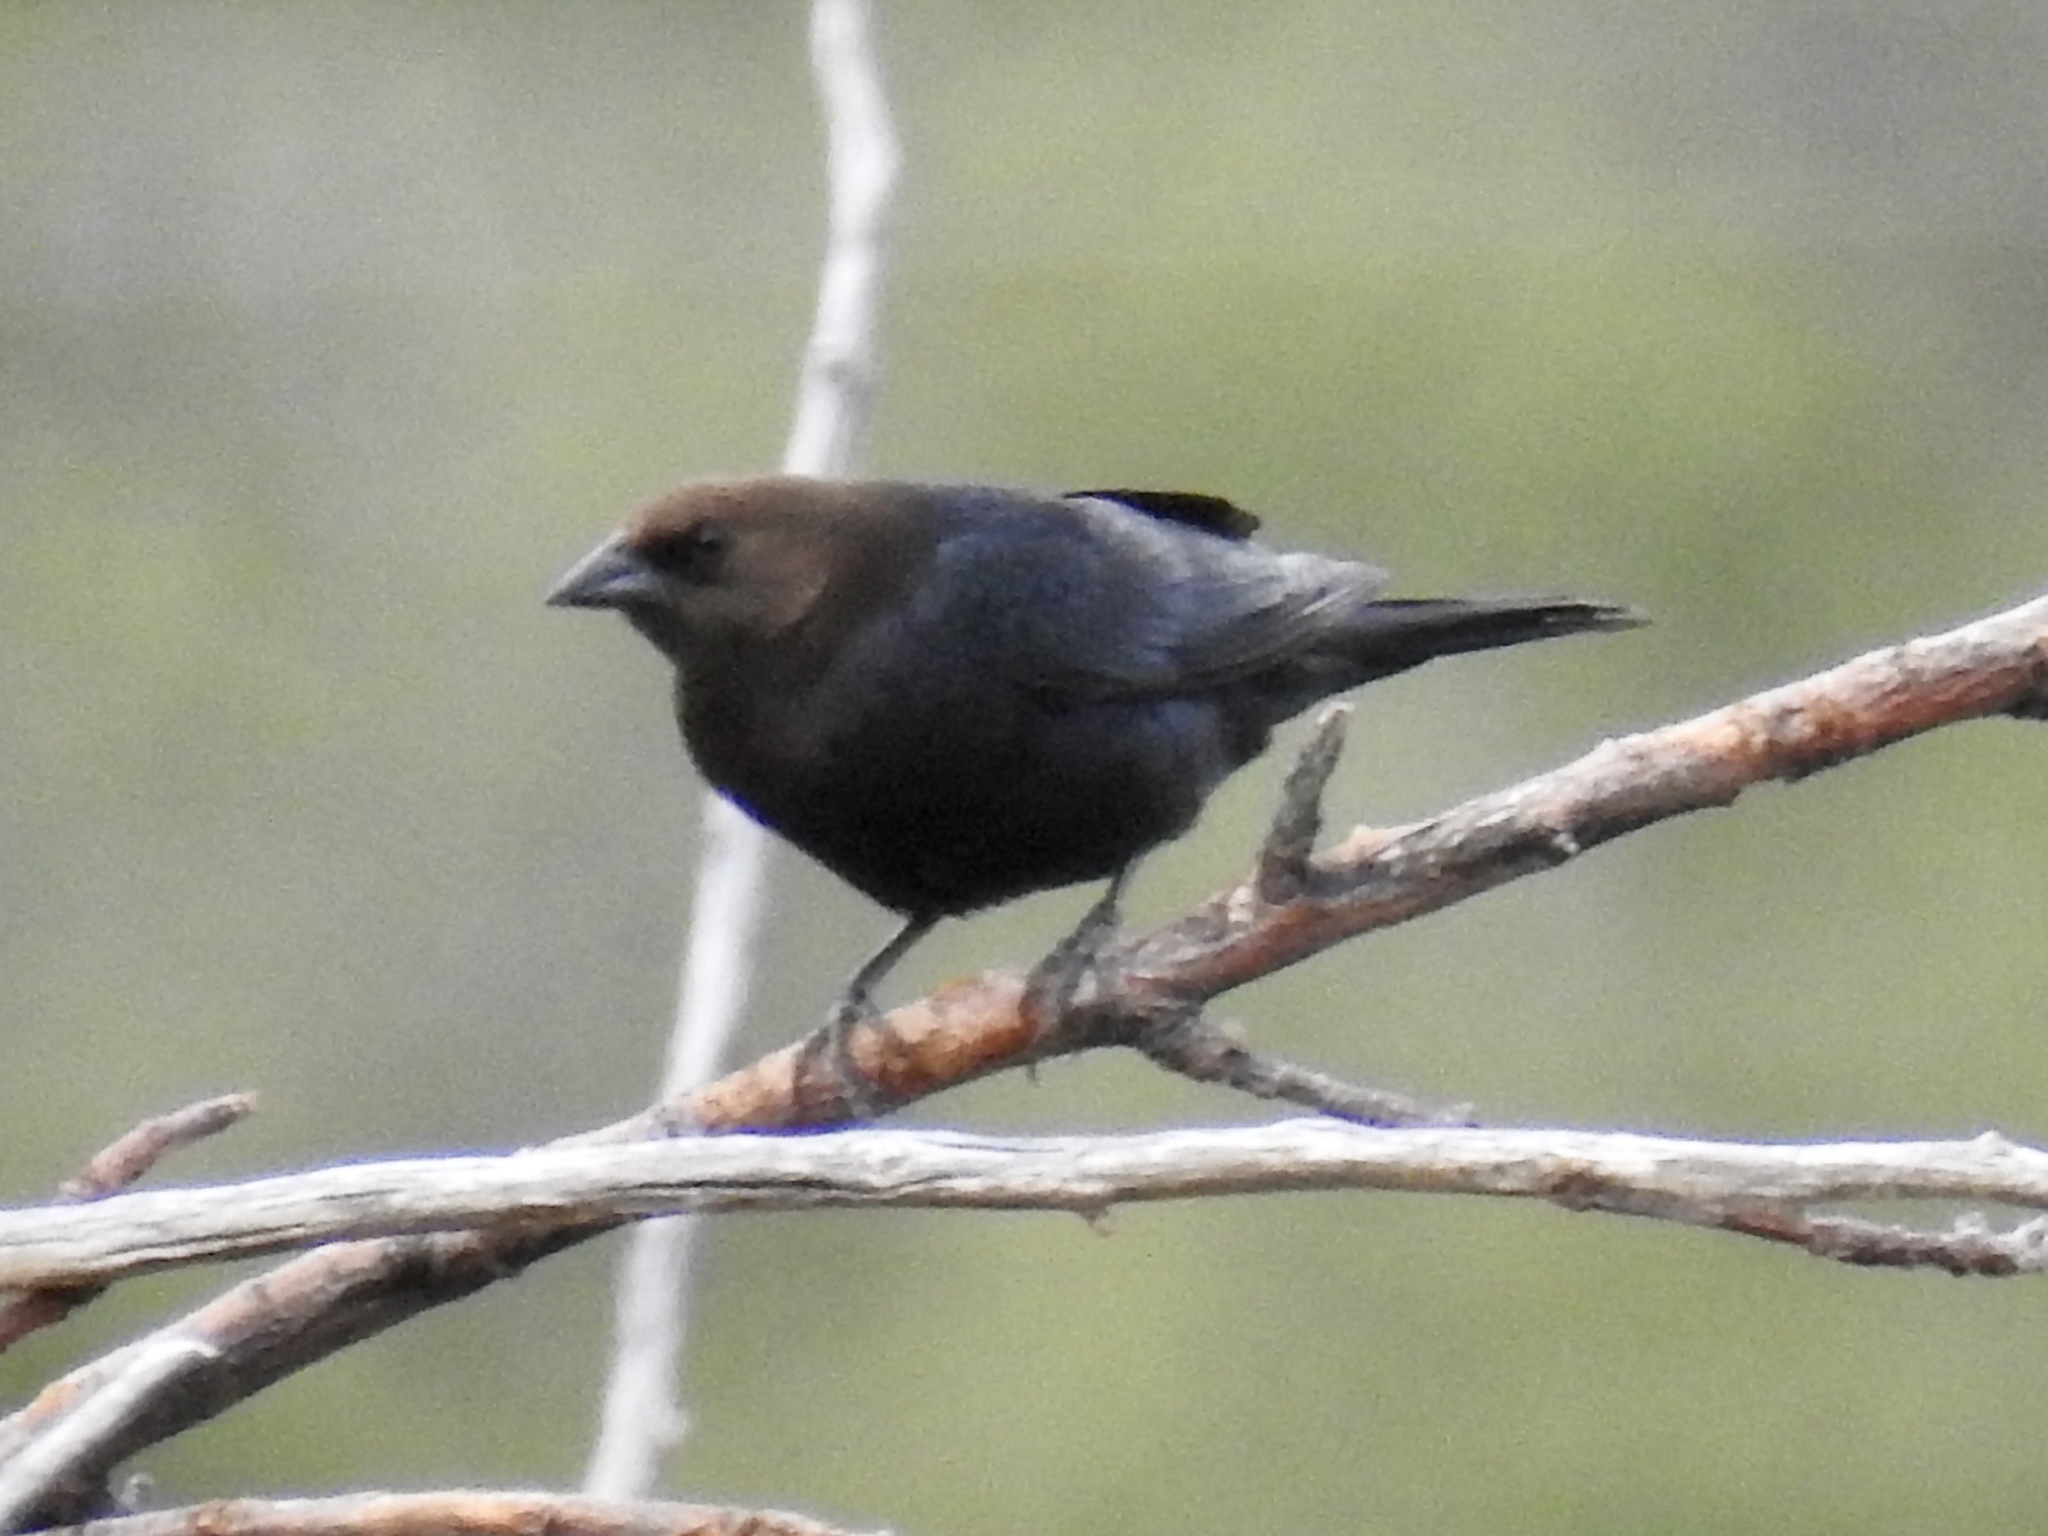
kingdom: Animalia
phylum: Chordata
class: Aves
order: Passeriformes
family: Icteridae
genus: Molothrus
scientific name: Molothrus ater
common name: Brown-headed cowbird
